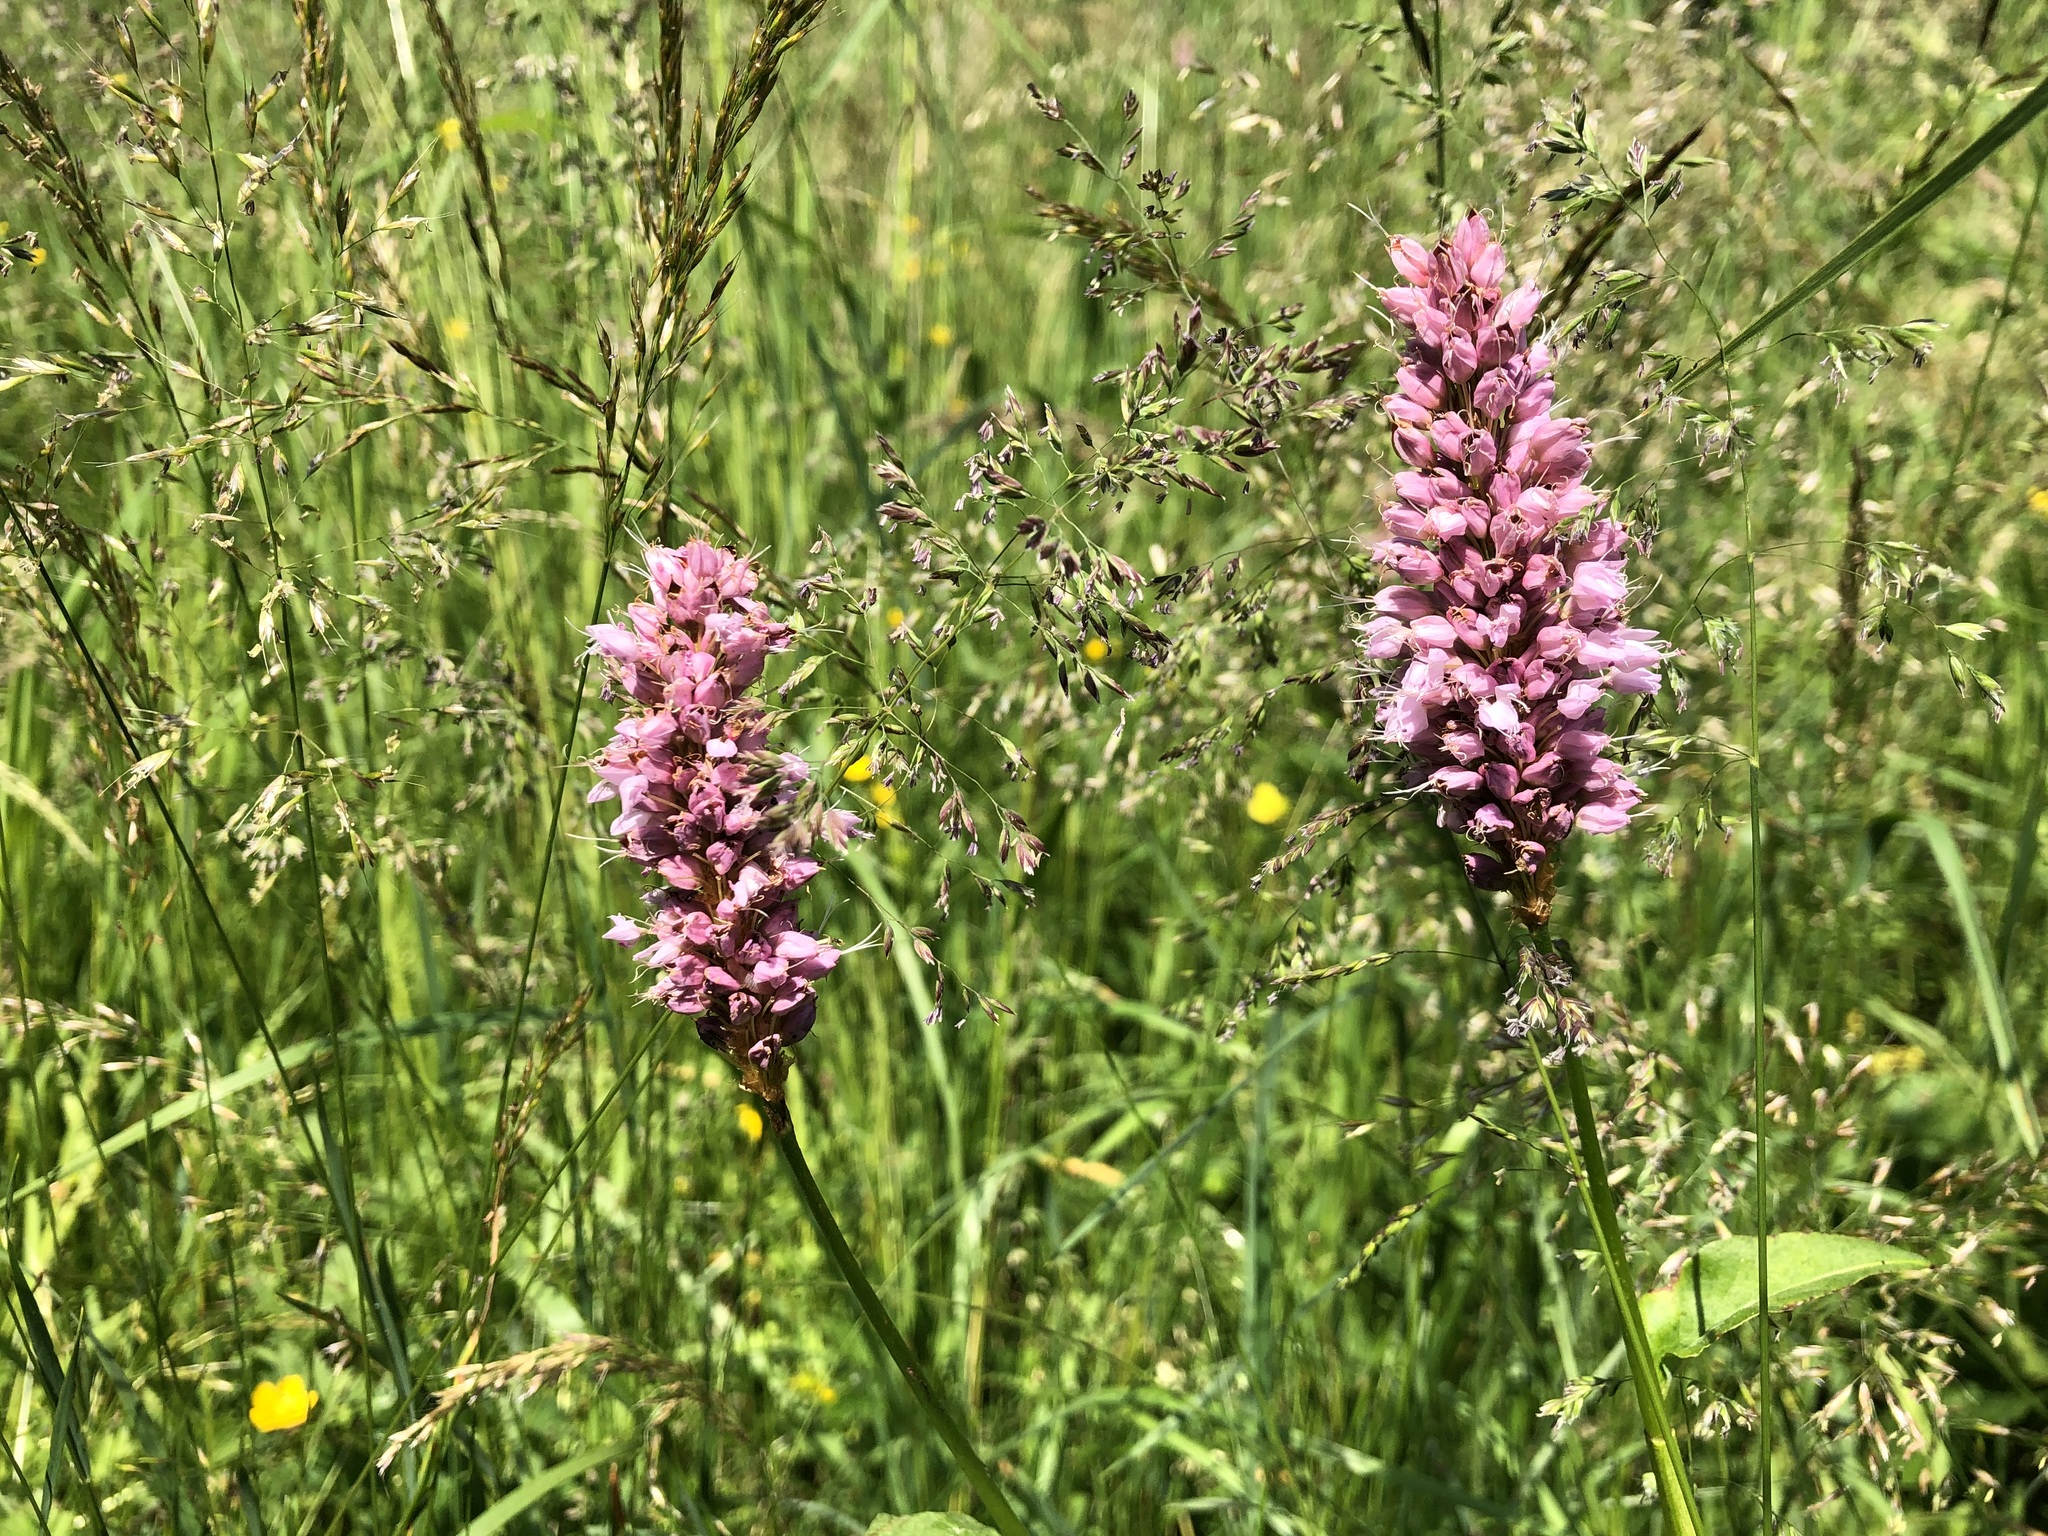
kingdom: Plantae
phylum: Tracheophyta
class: Magnoliopsida
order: Caryophyllales
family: Polygonaceae
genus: Bistorta
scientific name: Bistorta officinalis
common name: Common bistort
